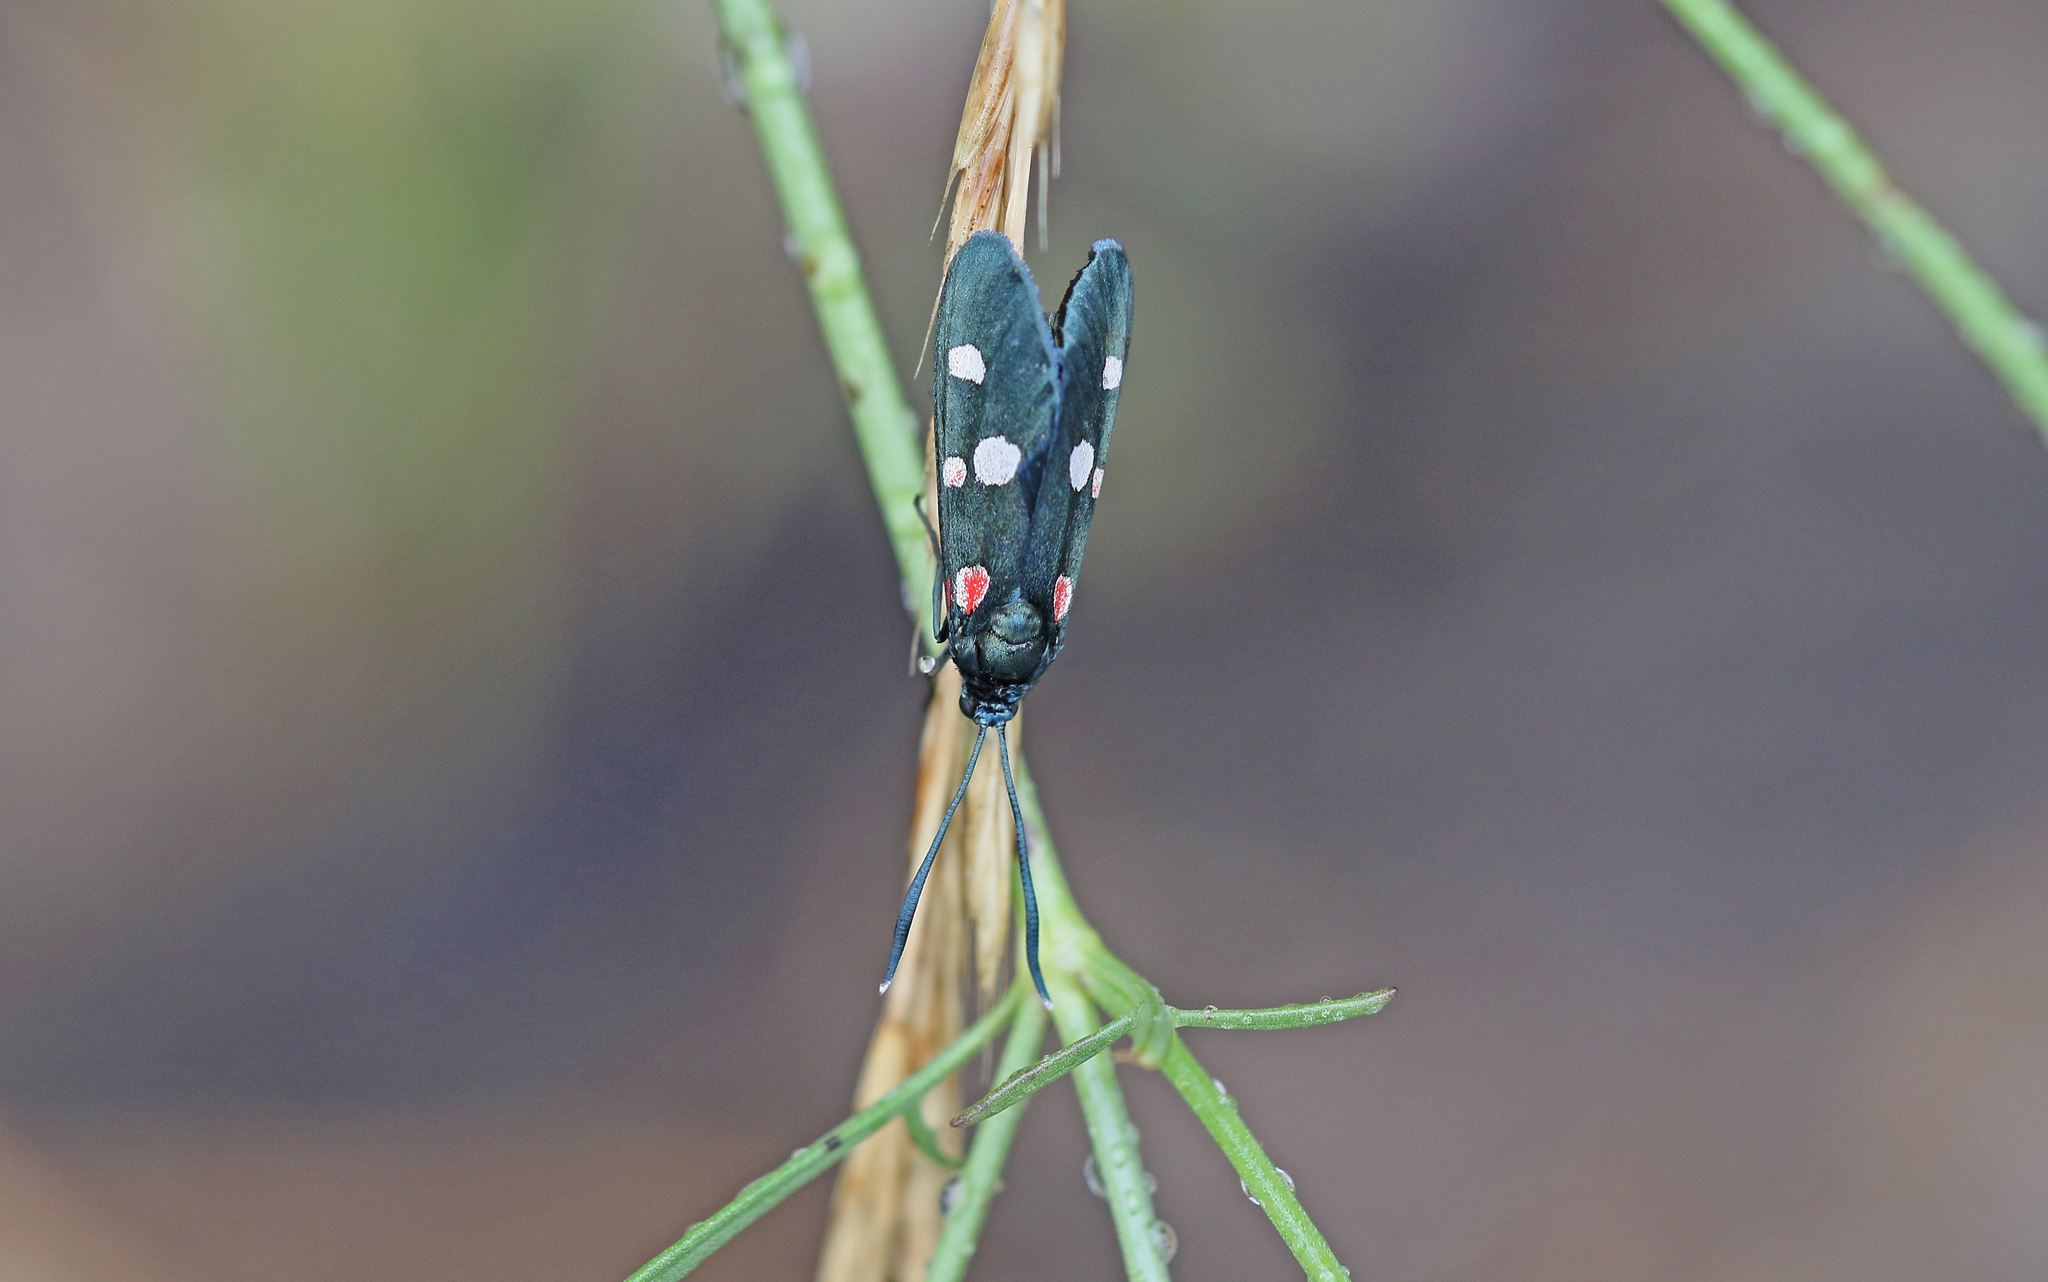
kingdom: Animalia
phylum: Arthropoda
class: Insecta
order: Lepidoptera
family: Zygaenidae
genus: Zygaena
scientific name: Zygaena ephialtes
